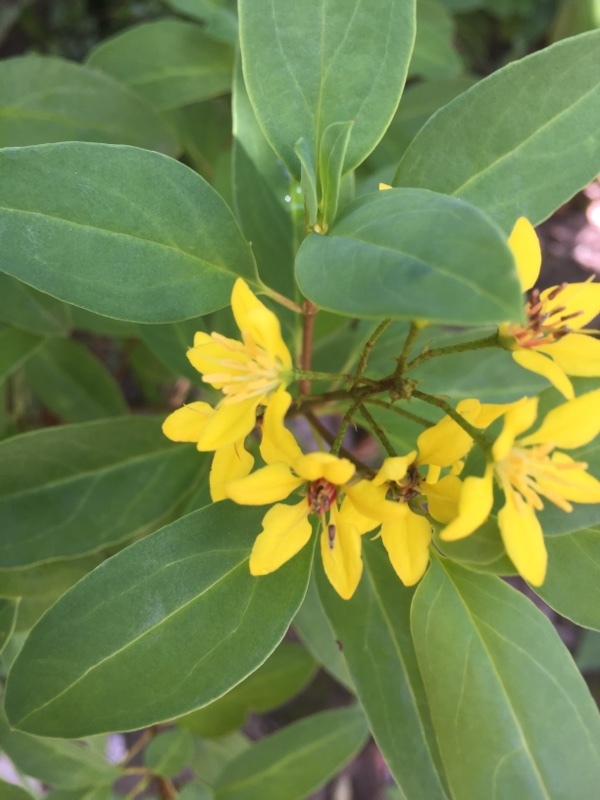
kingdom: Plantae
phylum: Tracheophyta
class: Magnoliopsida
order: Malpighiales
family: Malpighiaceae
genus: Galphimia
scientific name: Galphimia glauca
